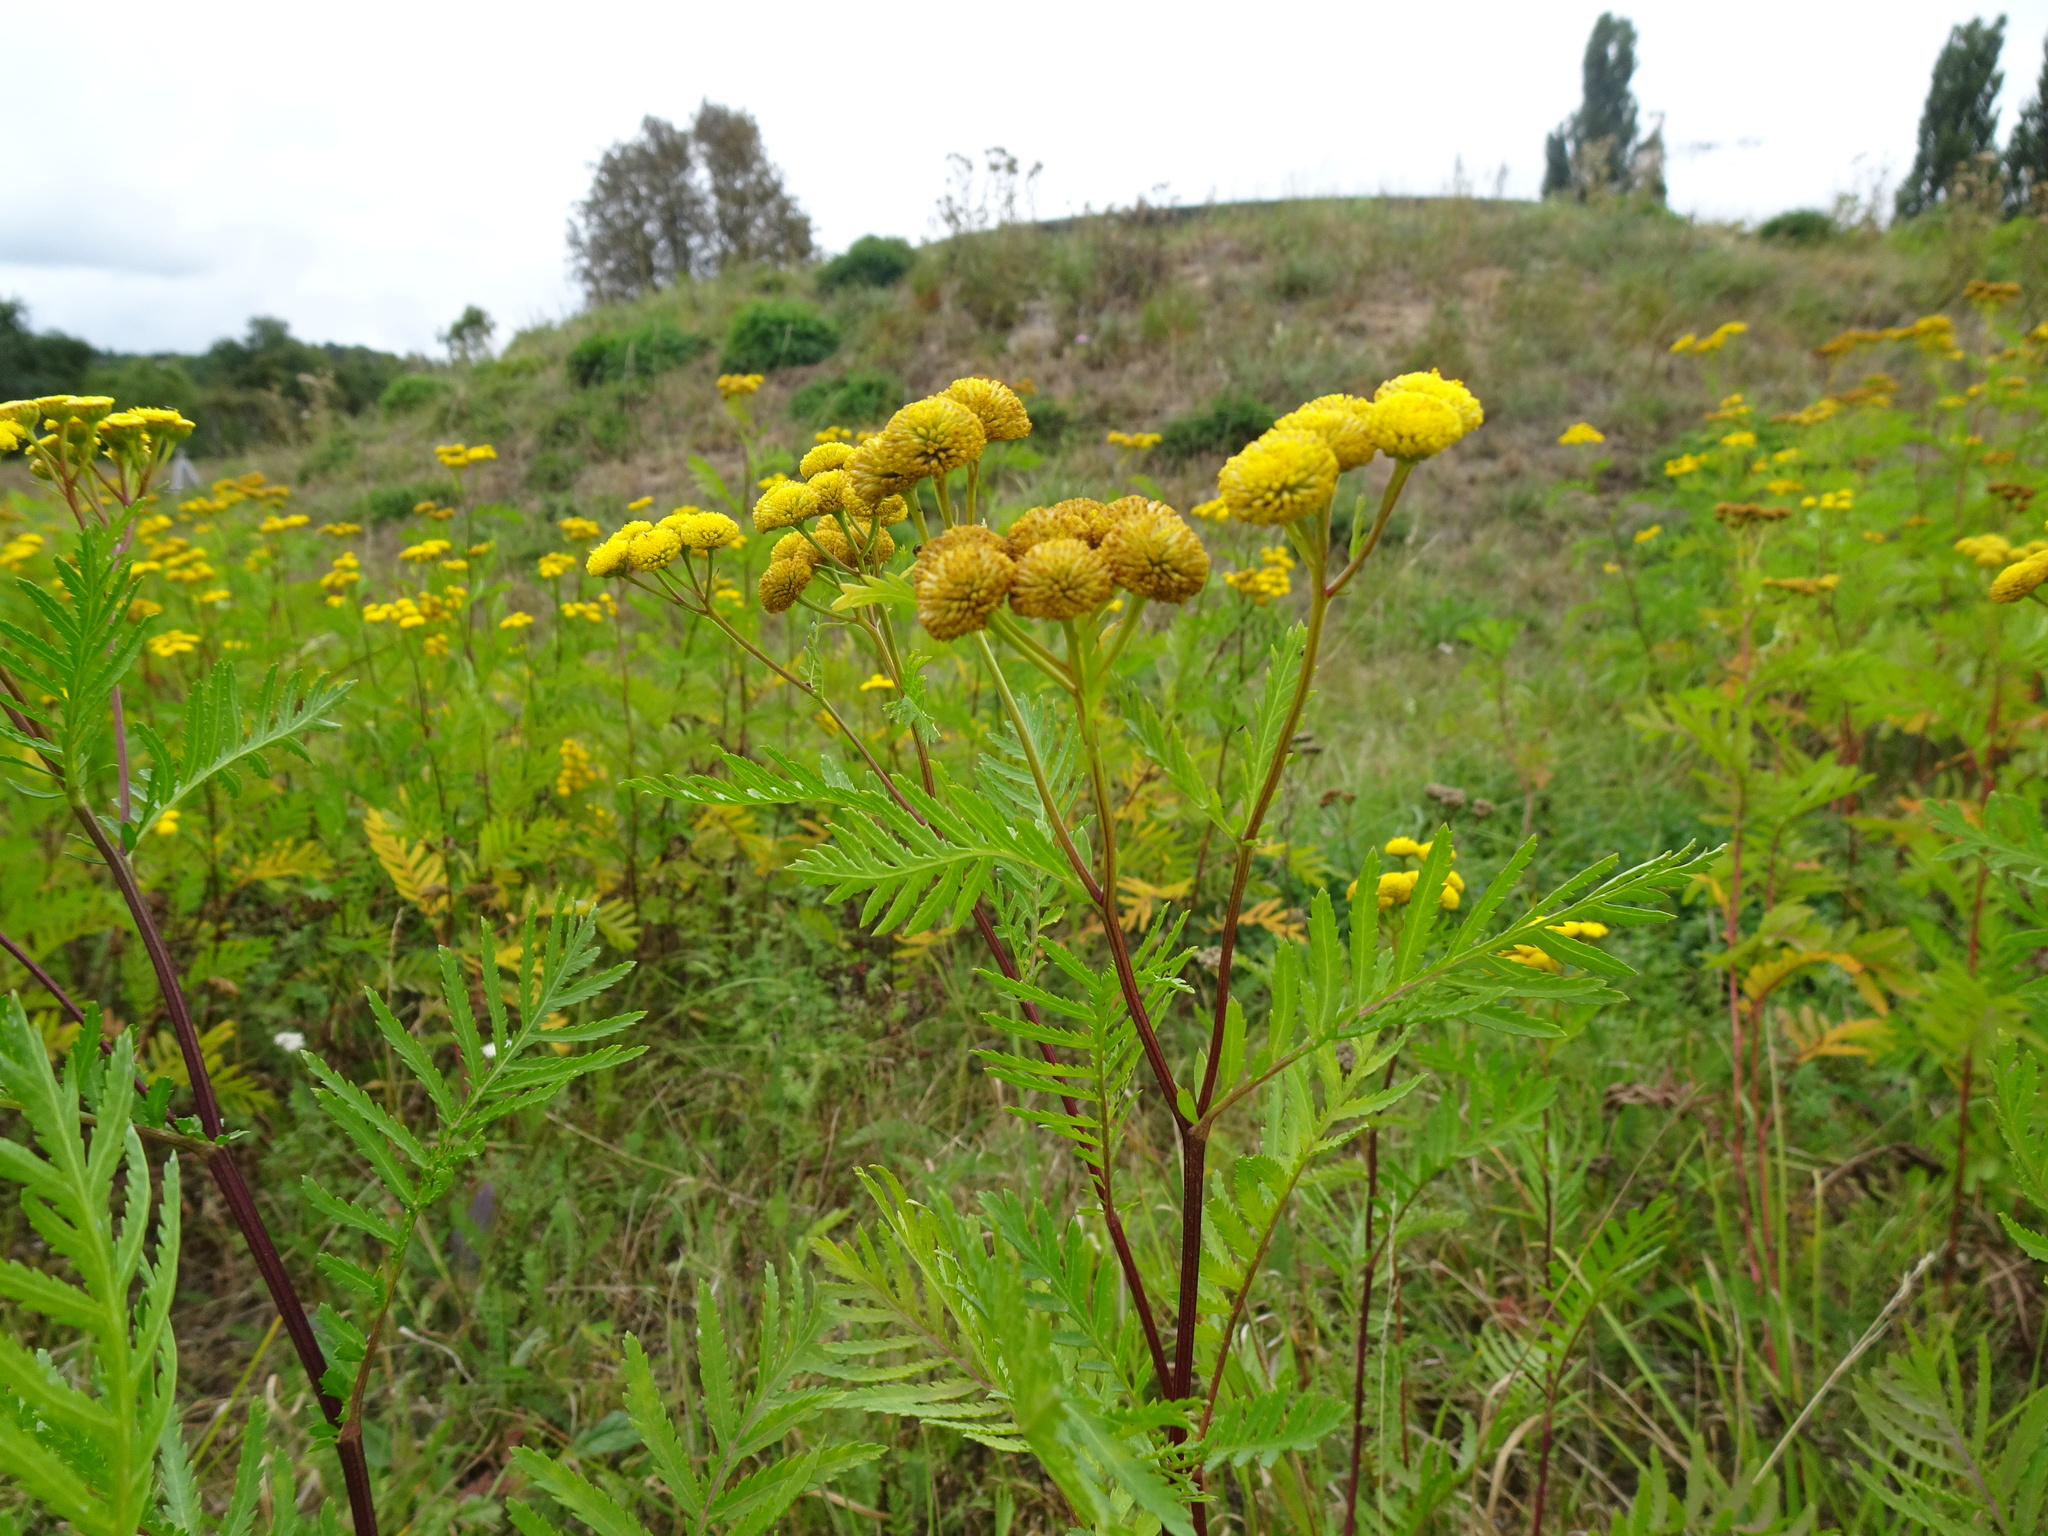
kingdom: Plantae
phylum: Tracheophyta
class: Magnoliopsida
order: Asterales
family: Asteraceae
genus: Tanacetum
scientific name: Tanacetum vulgare
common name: Common tansy
